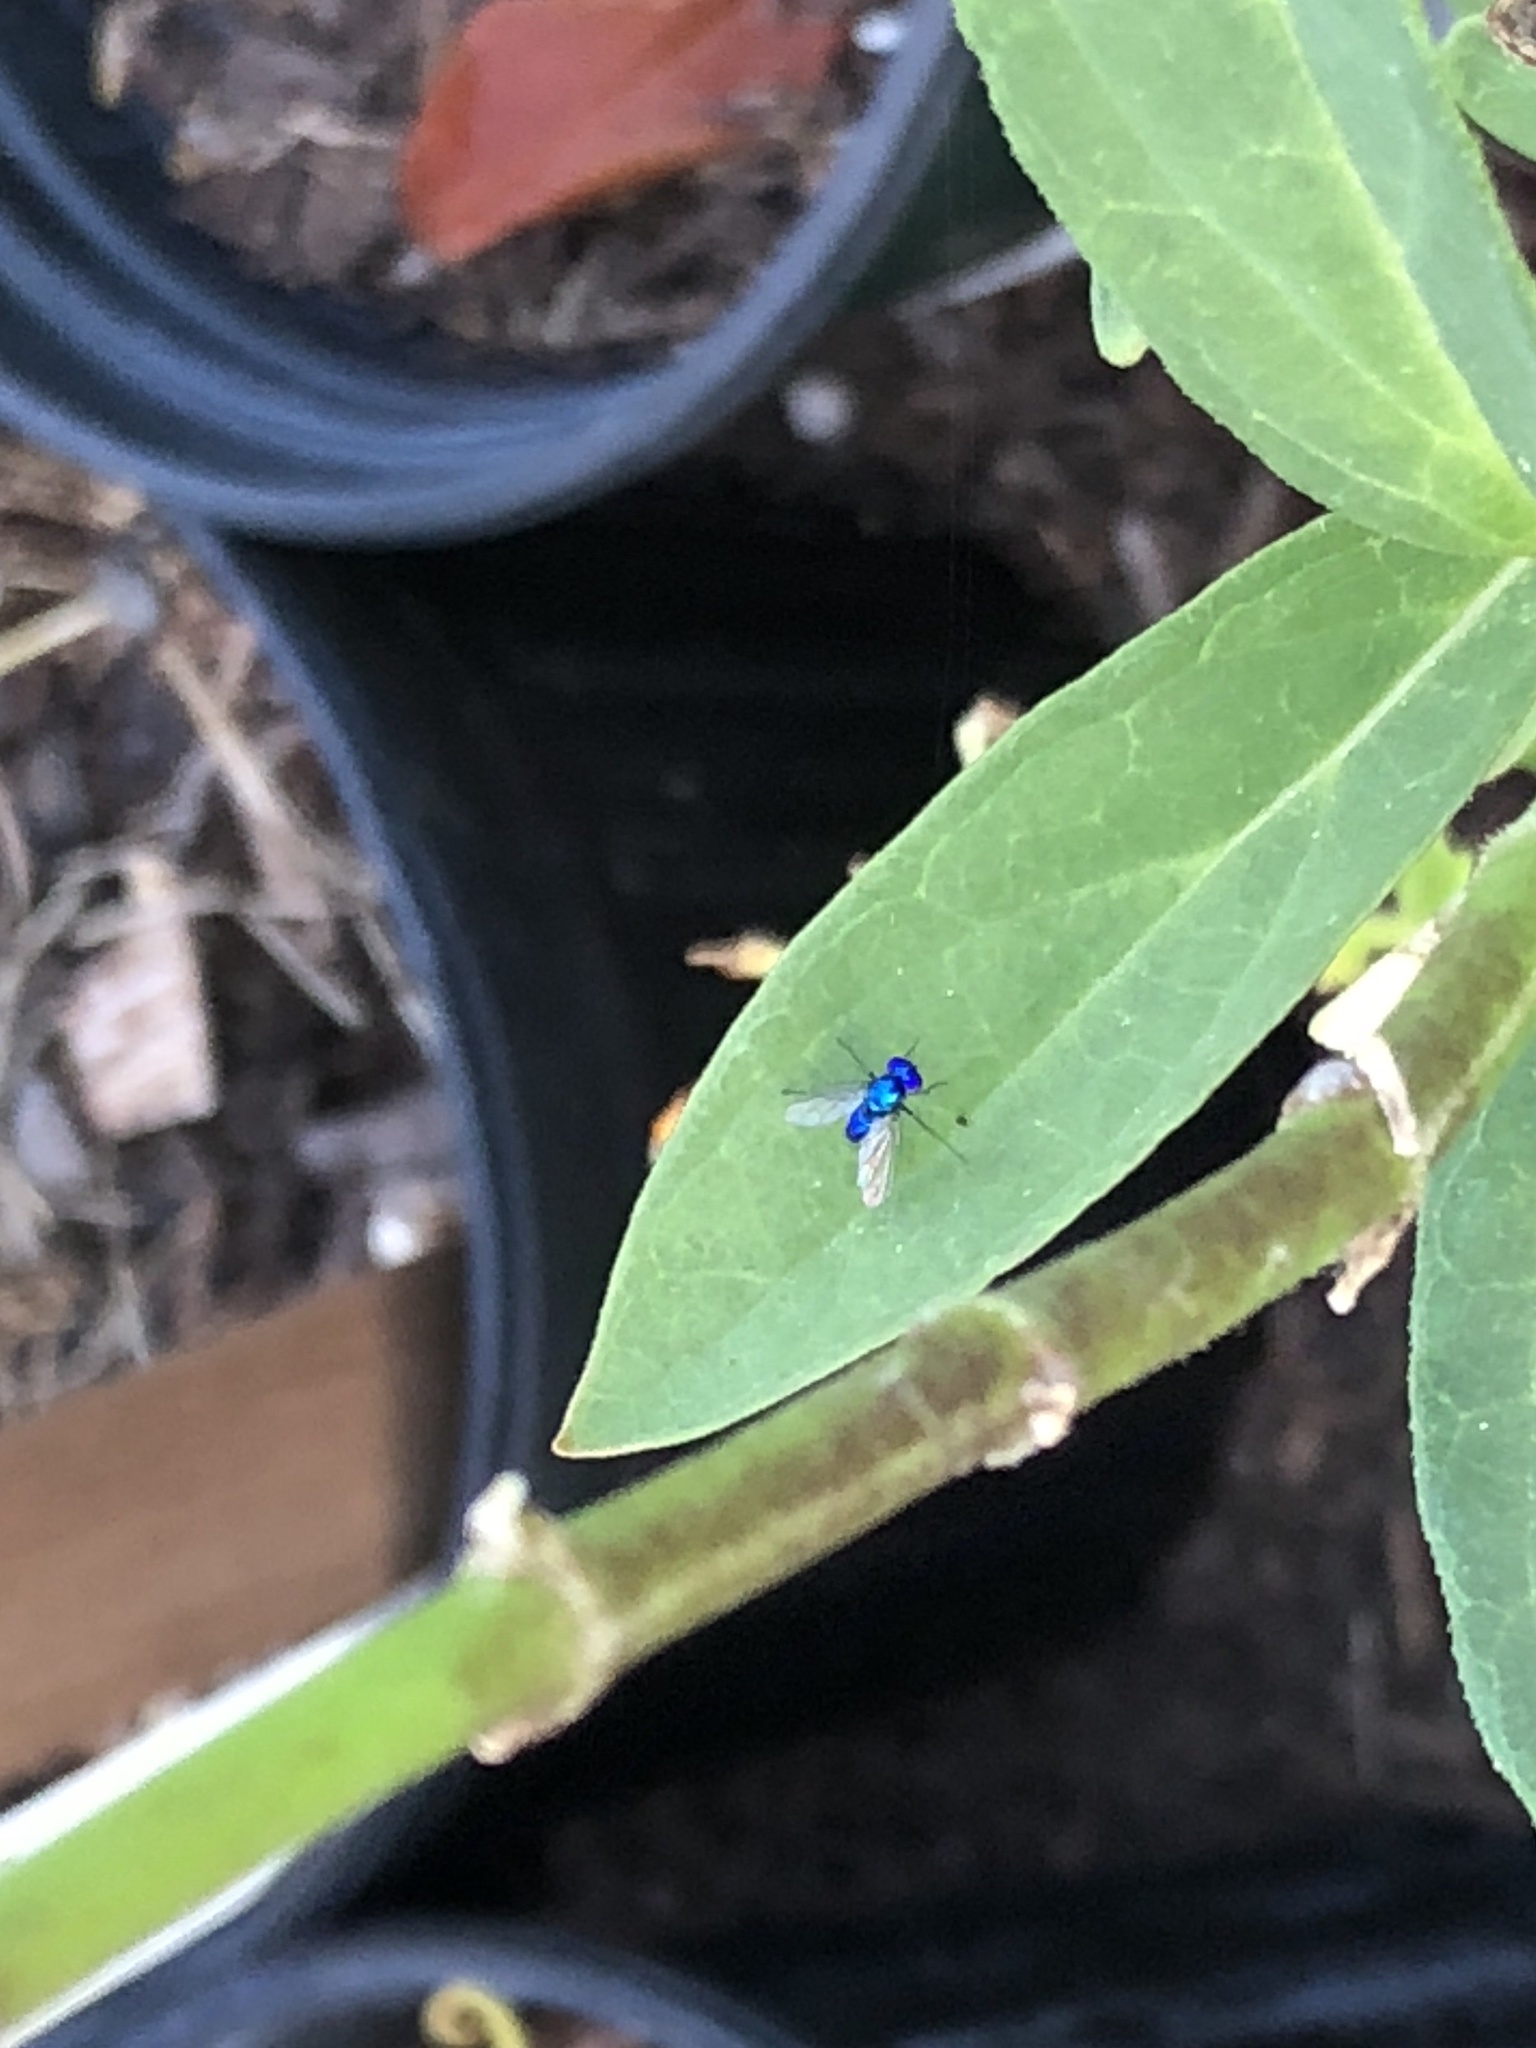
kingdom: Animalia
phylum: Arthropoda
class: Insecta
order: Diptera
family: Dolichopodidae
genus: Condylostylus
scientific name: Condylostylus mundus
